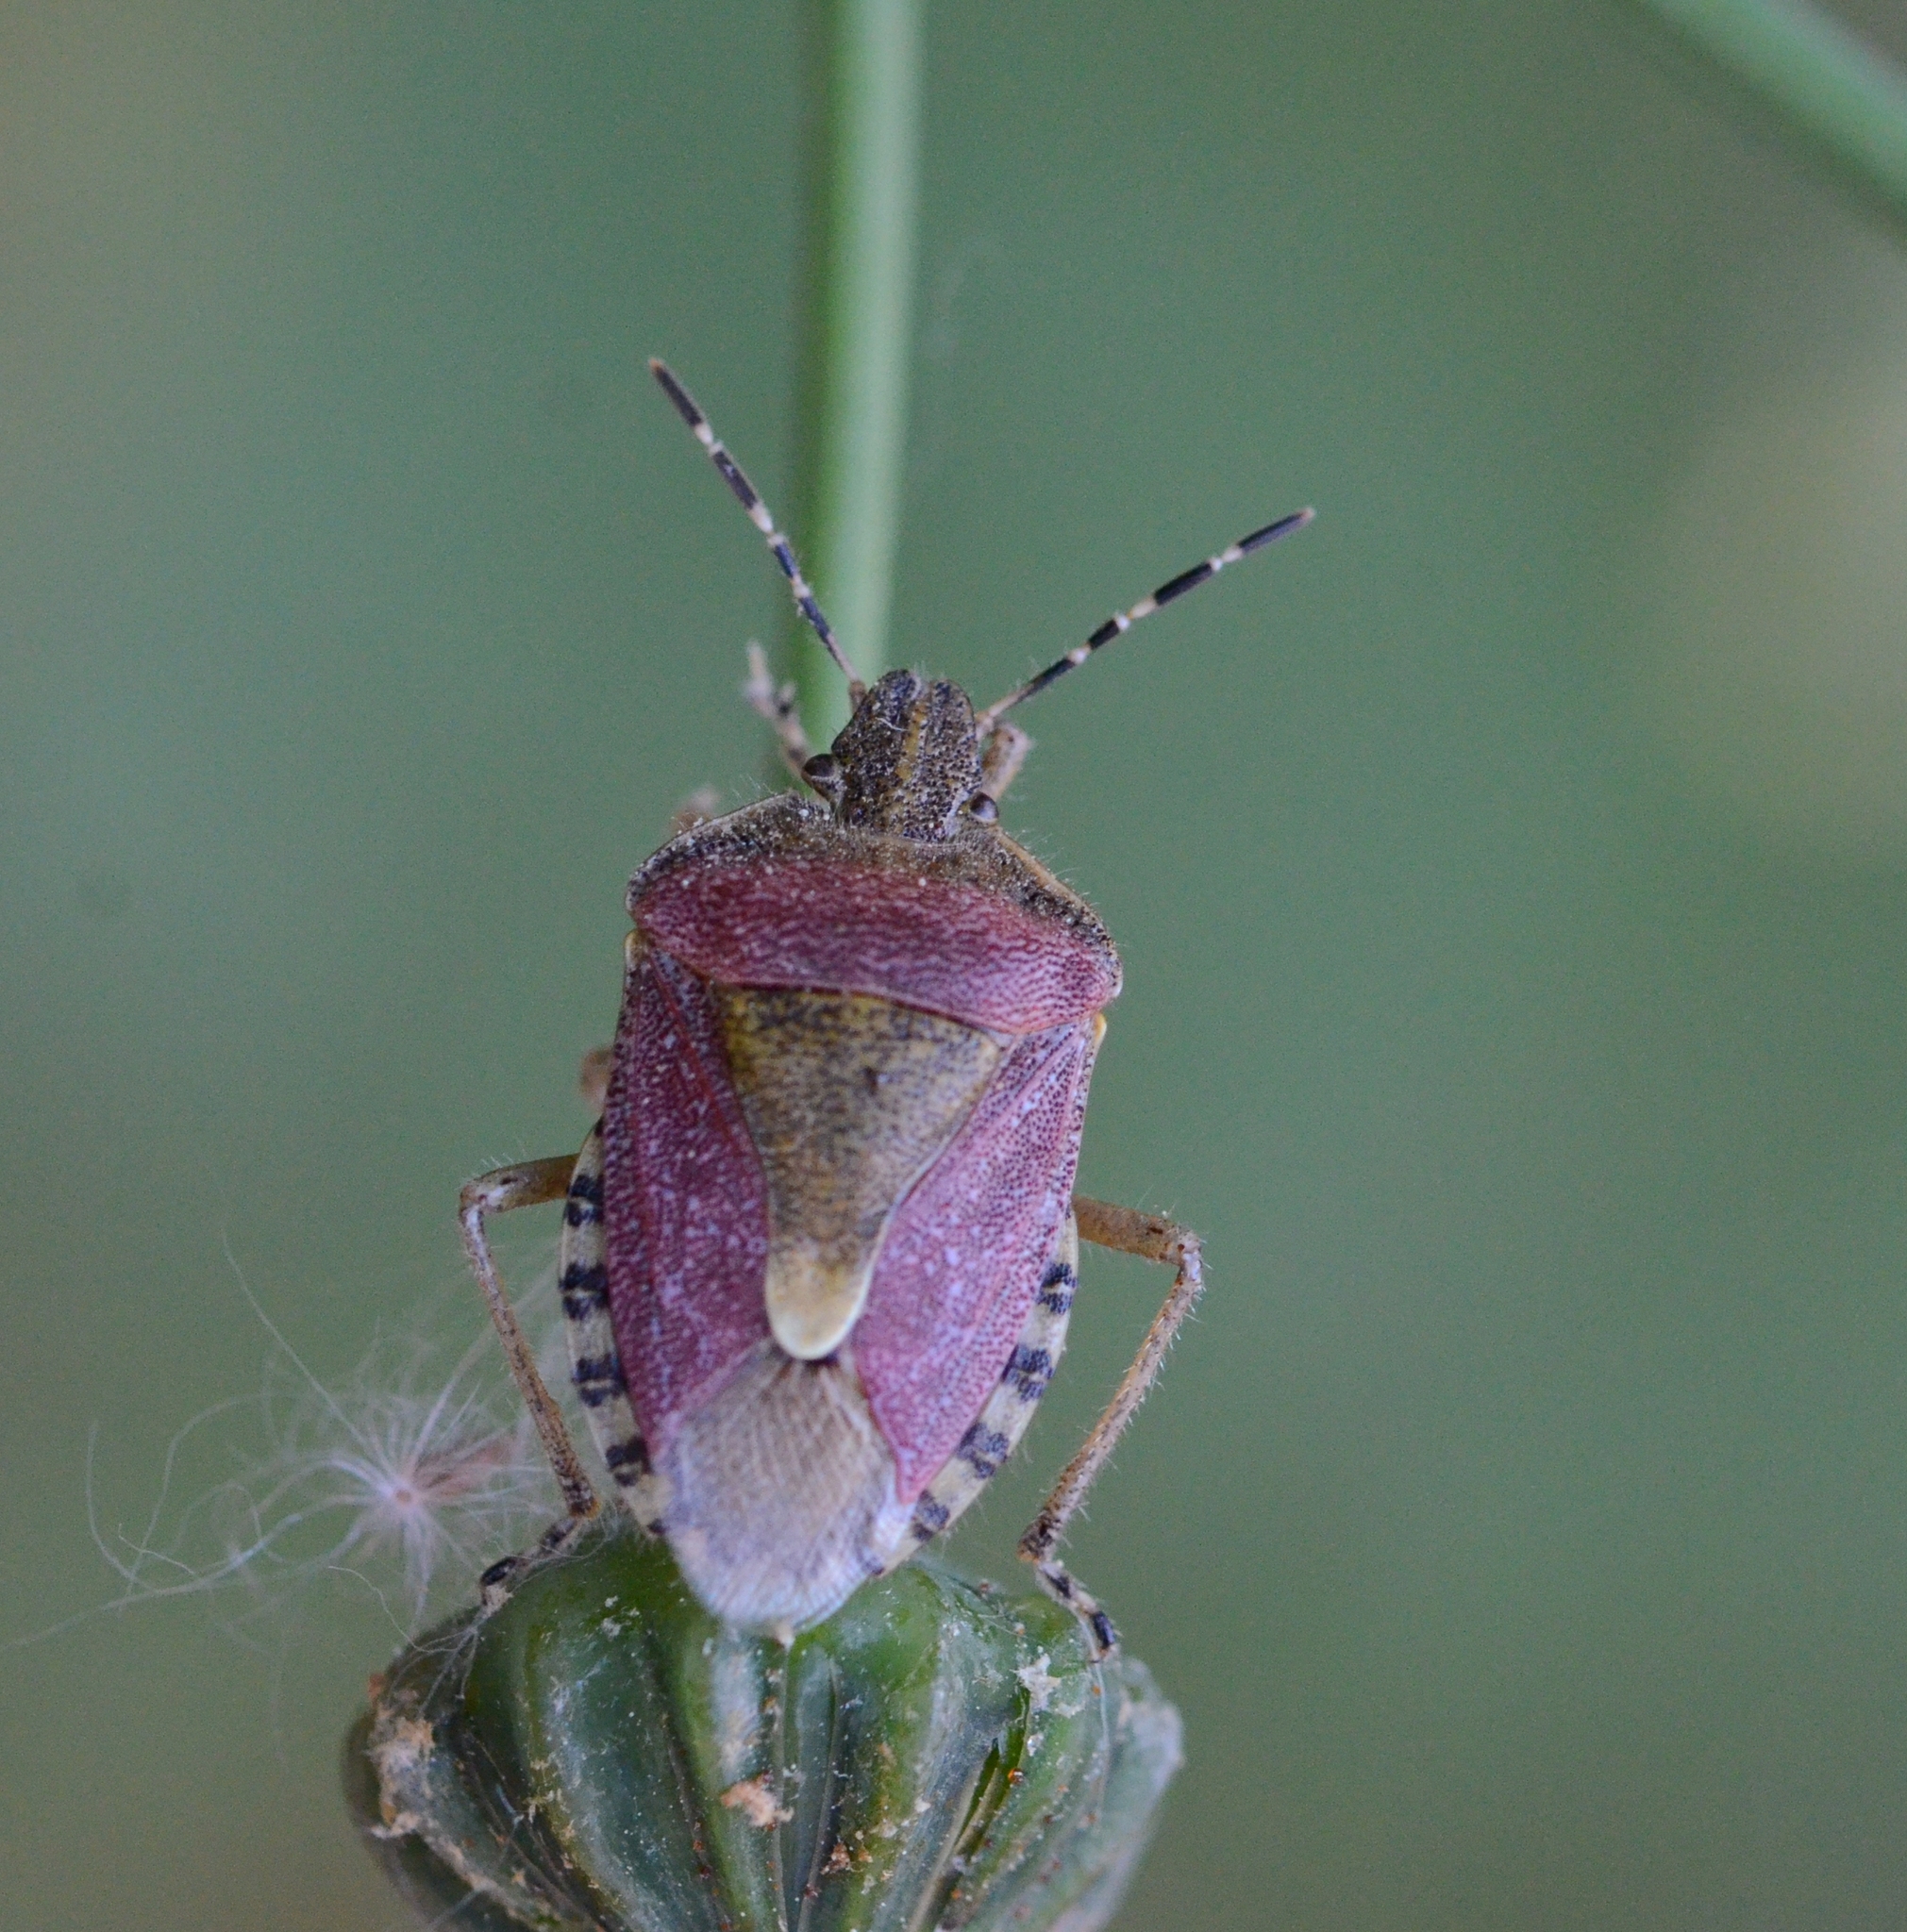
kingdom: Animalia
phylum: Arthropoda
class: Insecta
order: Hemiptera
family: Pentatomidae
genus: Dolycoris
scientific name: Dolycoris baccarum
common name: Sloe bug
